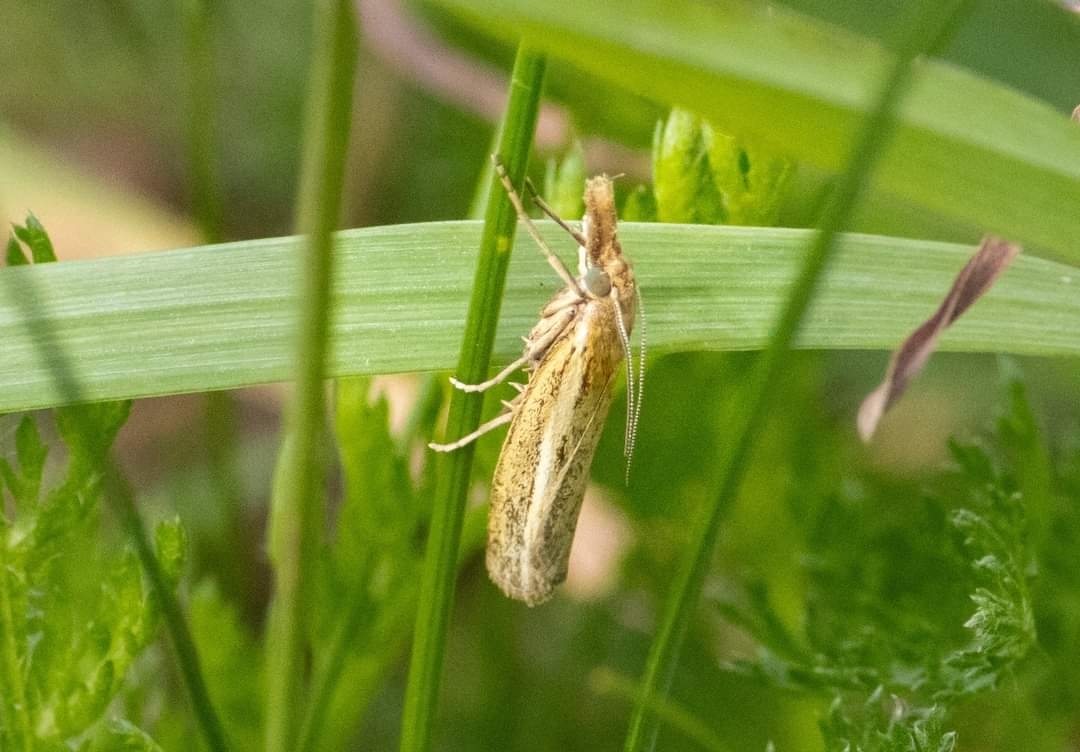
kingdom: Animalia
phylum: Arthropoda
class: Insecta
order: Lepidoptera
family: Crambidae
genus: Agriphila
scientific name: Agriphila tristellus
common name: Common grass-veneer
